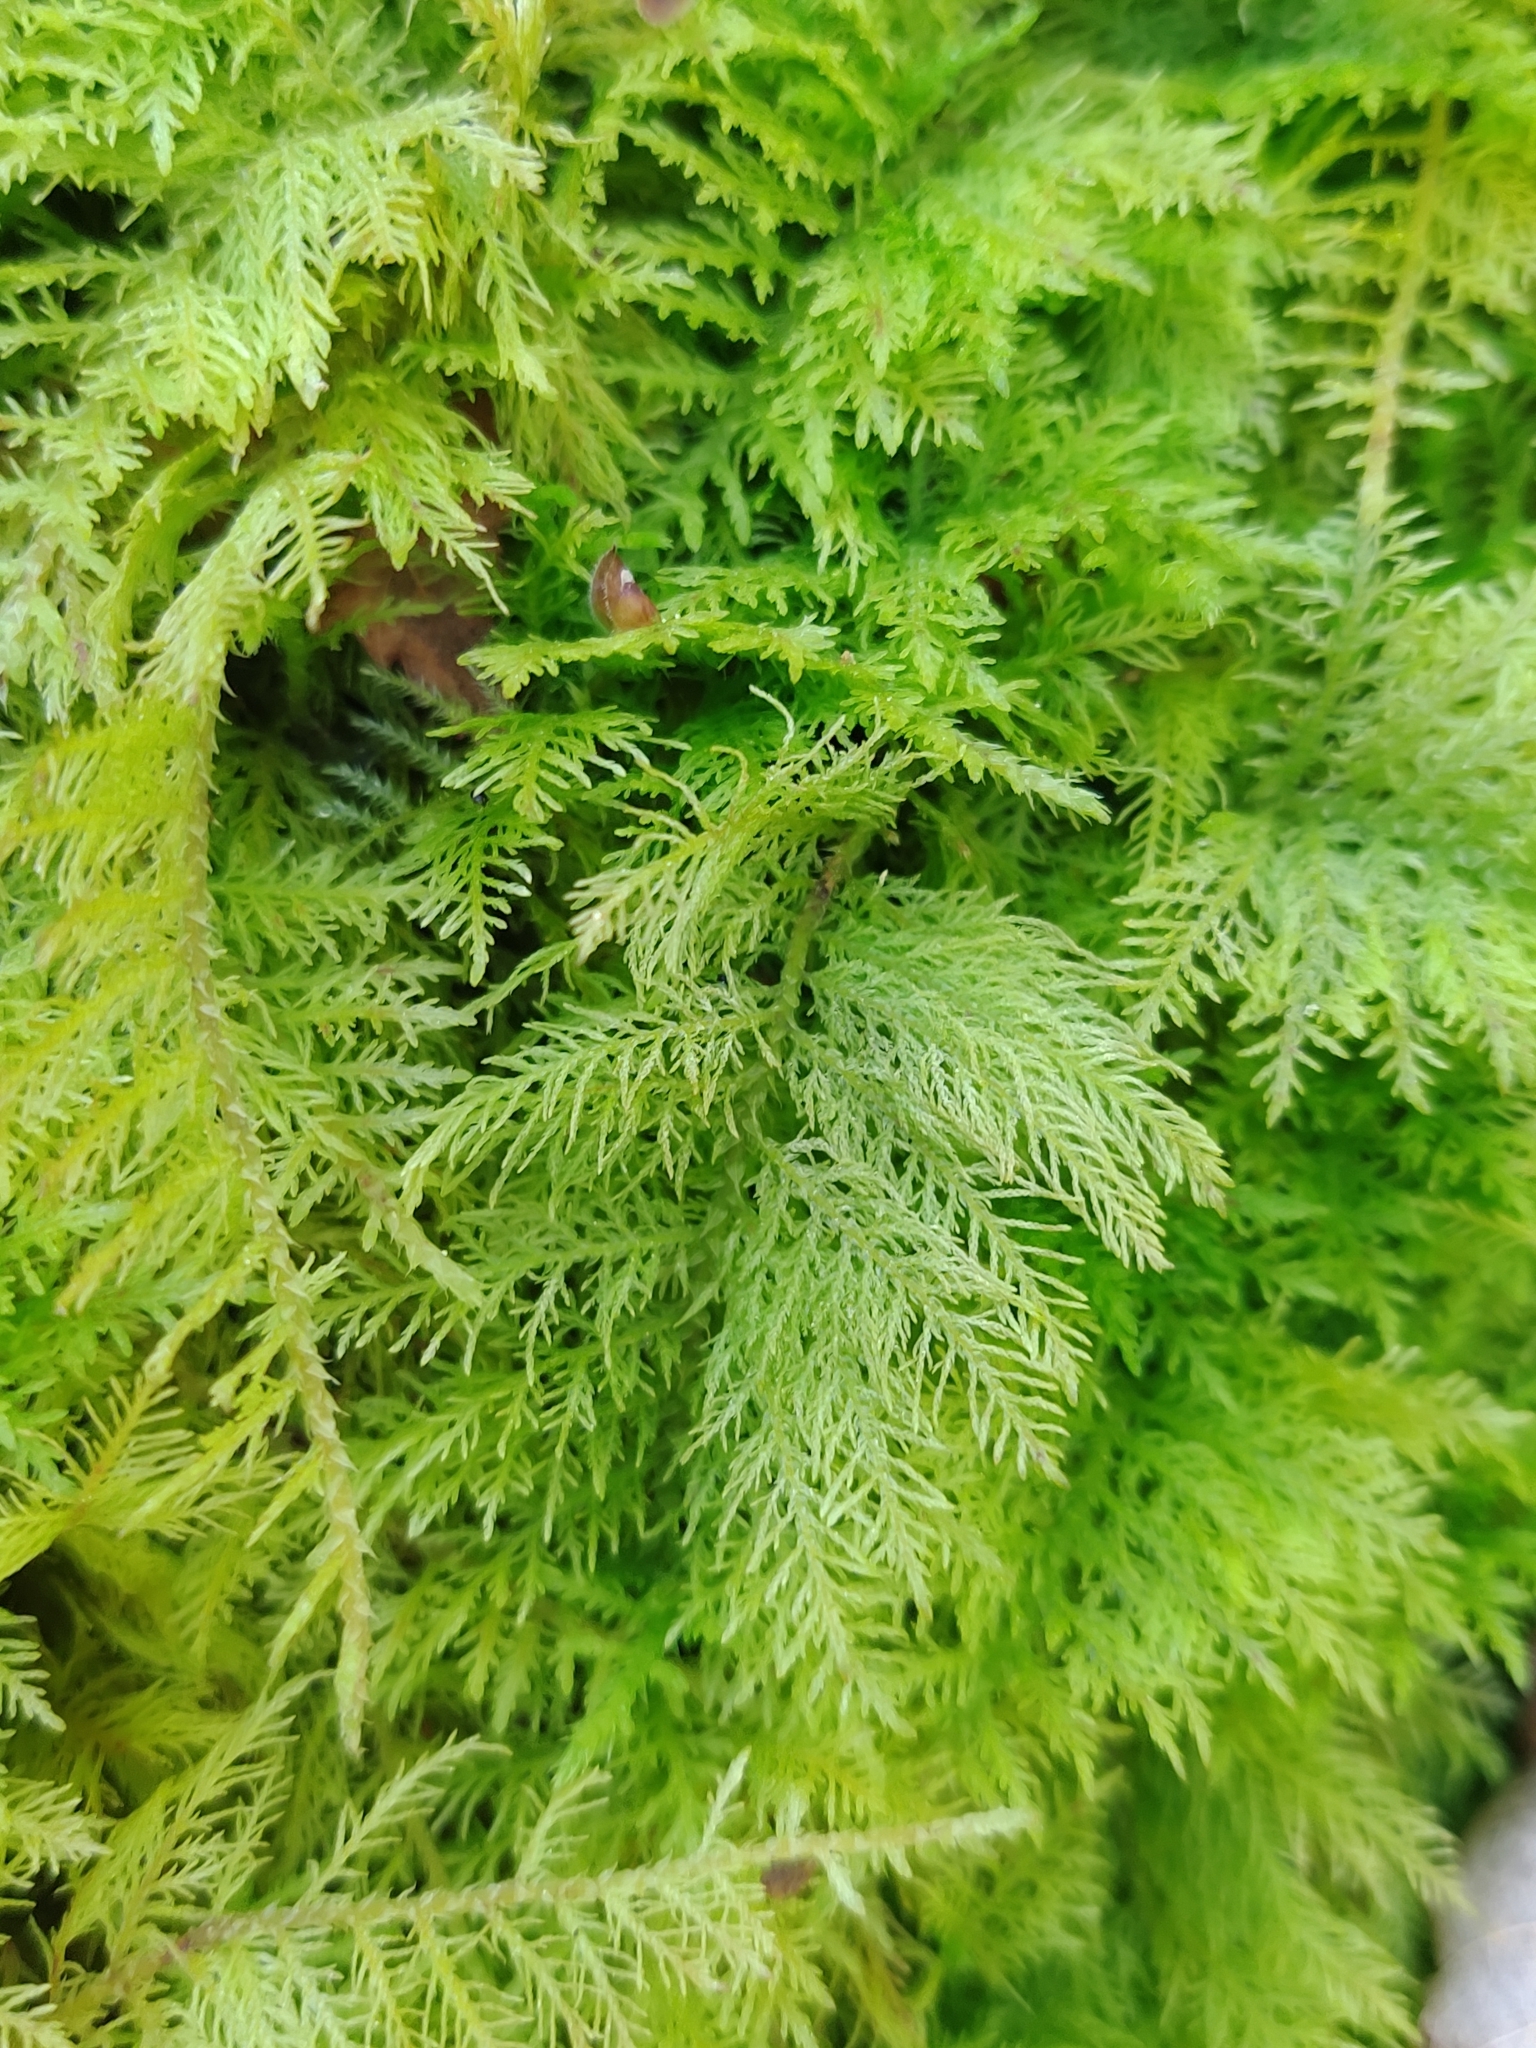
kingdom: Plantae
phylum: Bryophyta
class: Bryopsida
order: Hypnales
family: Thuidiaceae
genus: Thuidium
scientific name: Thuidium tamariscinum
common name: Common tamarisk-moss
